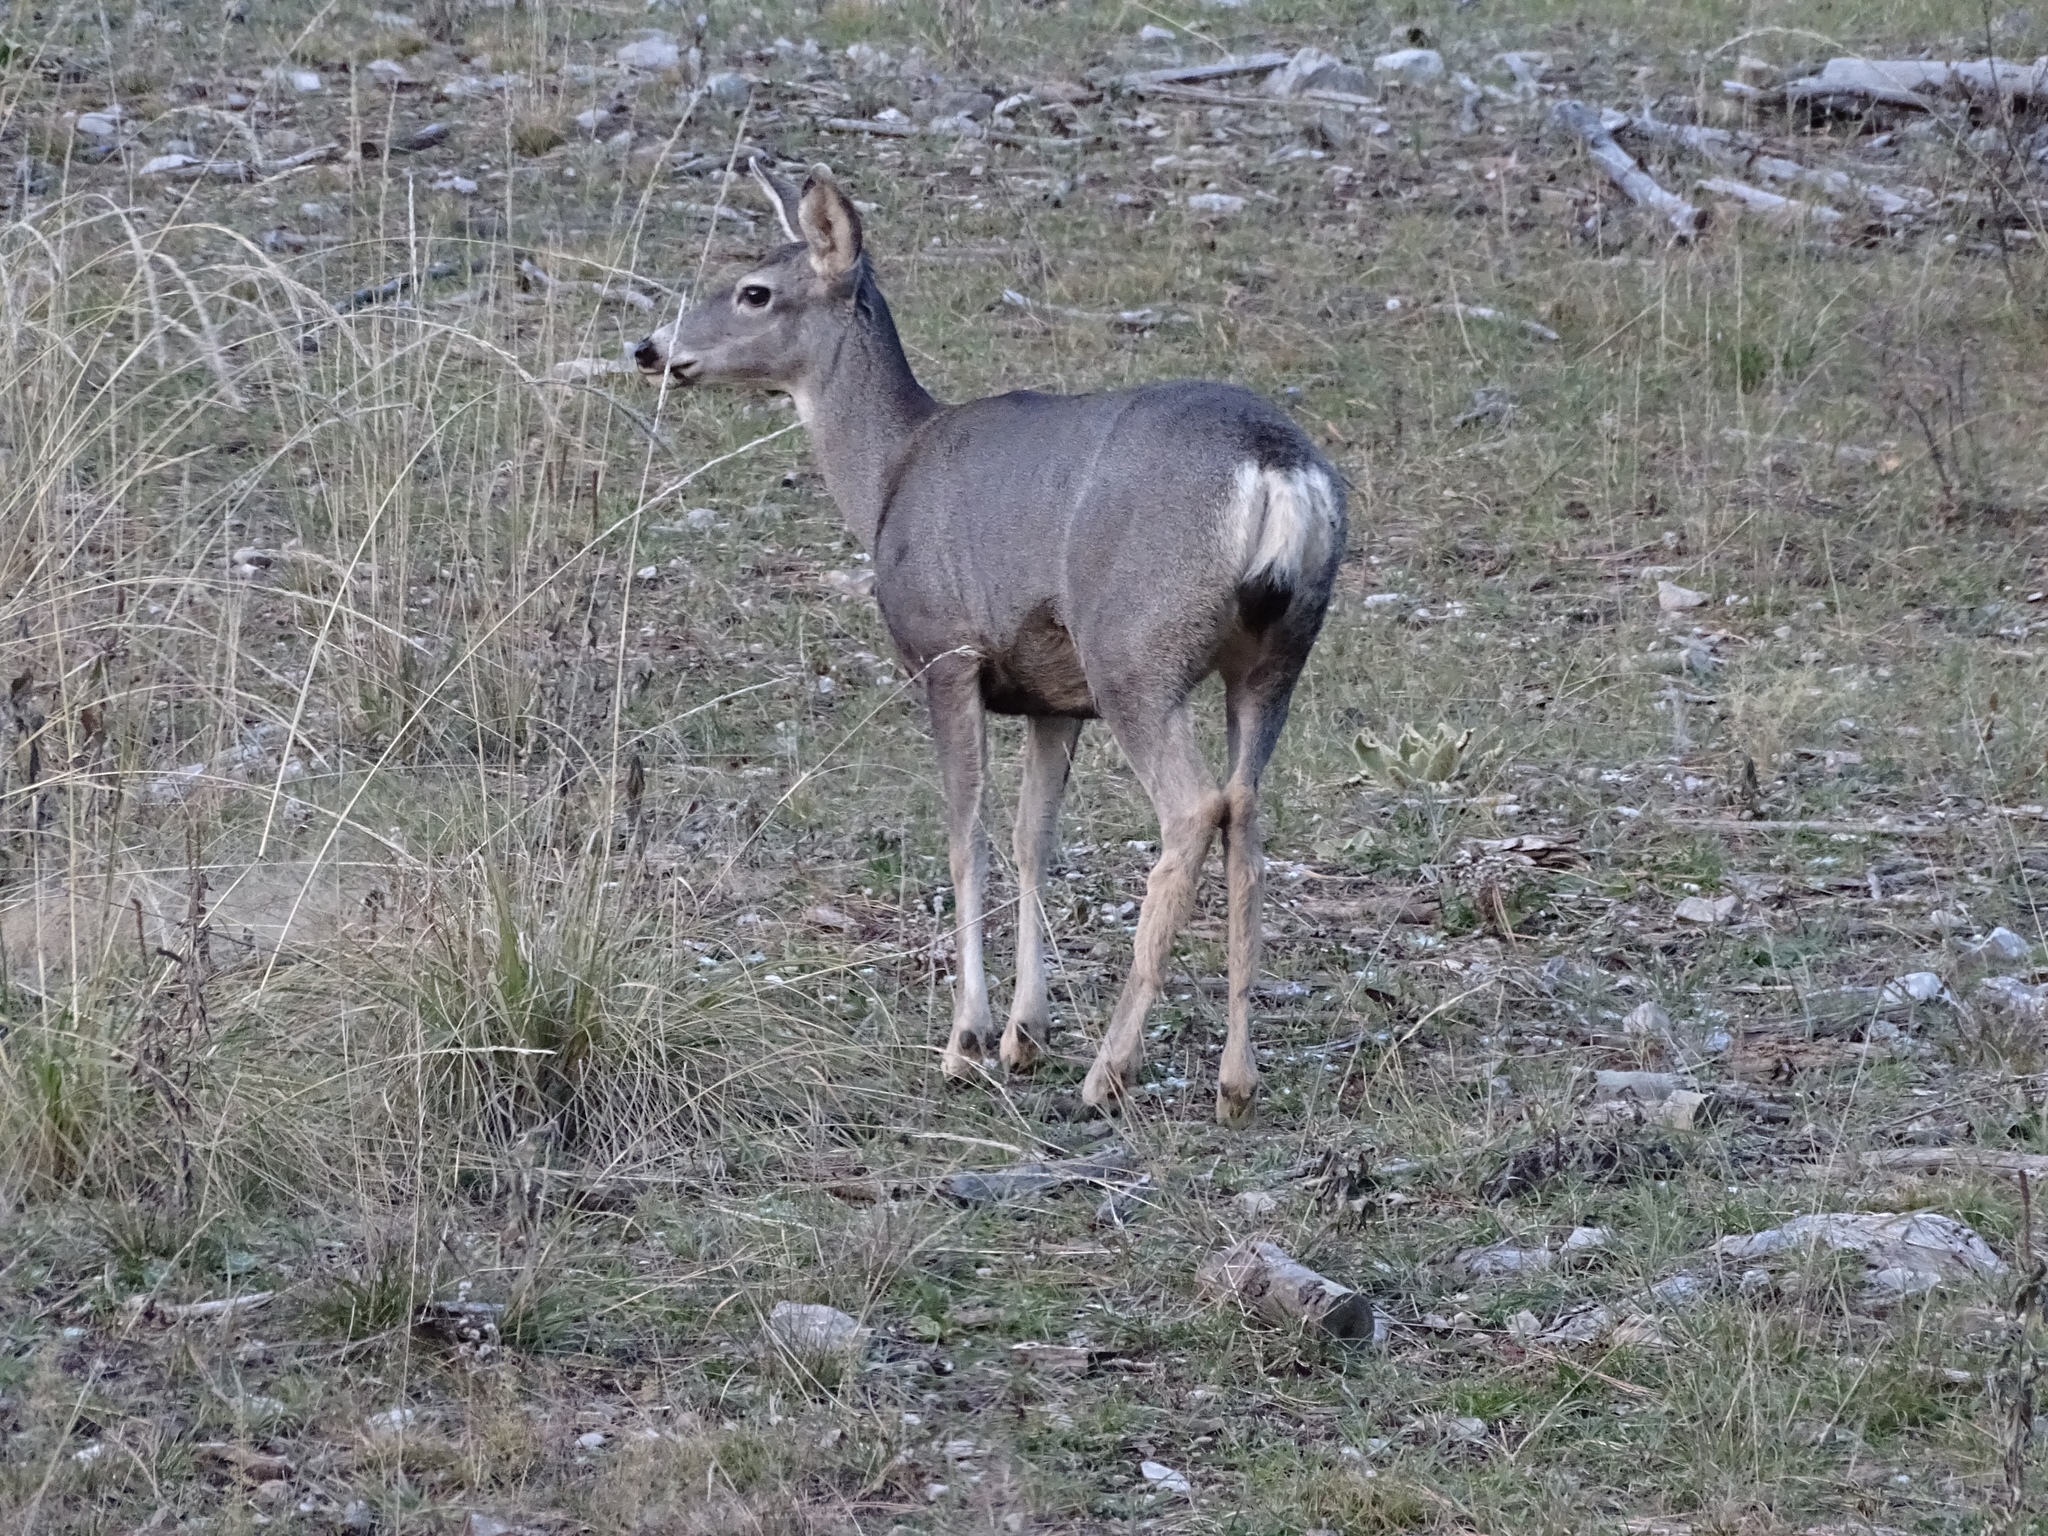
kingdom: Animalia
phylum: Chordata
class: Mammalia
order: Artiodactyla
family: Cervidae
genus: Odocoileus
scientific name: Odocoileus hemionus
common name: Mule deer
